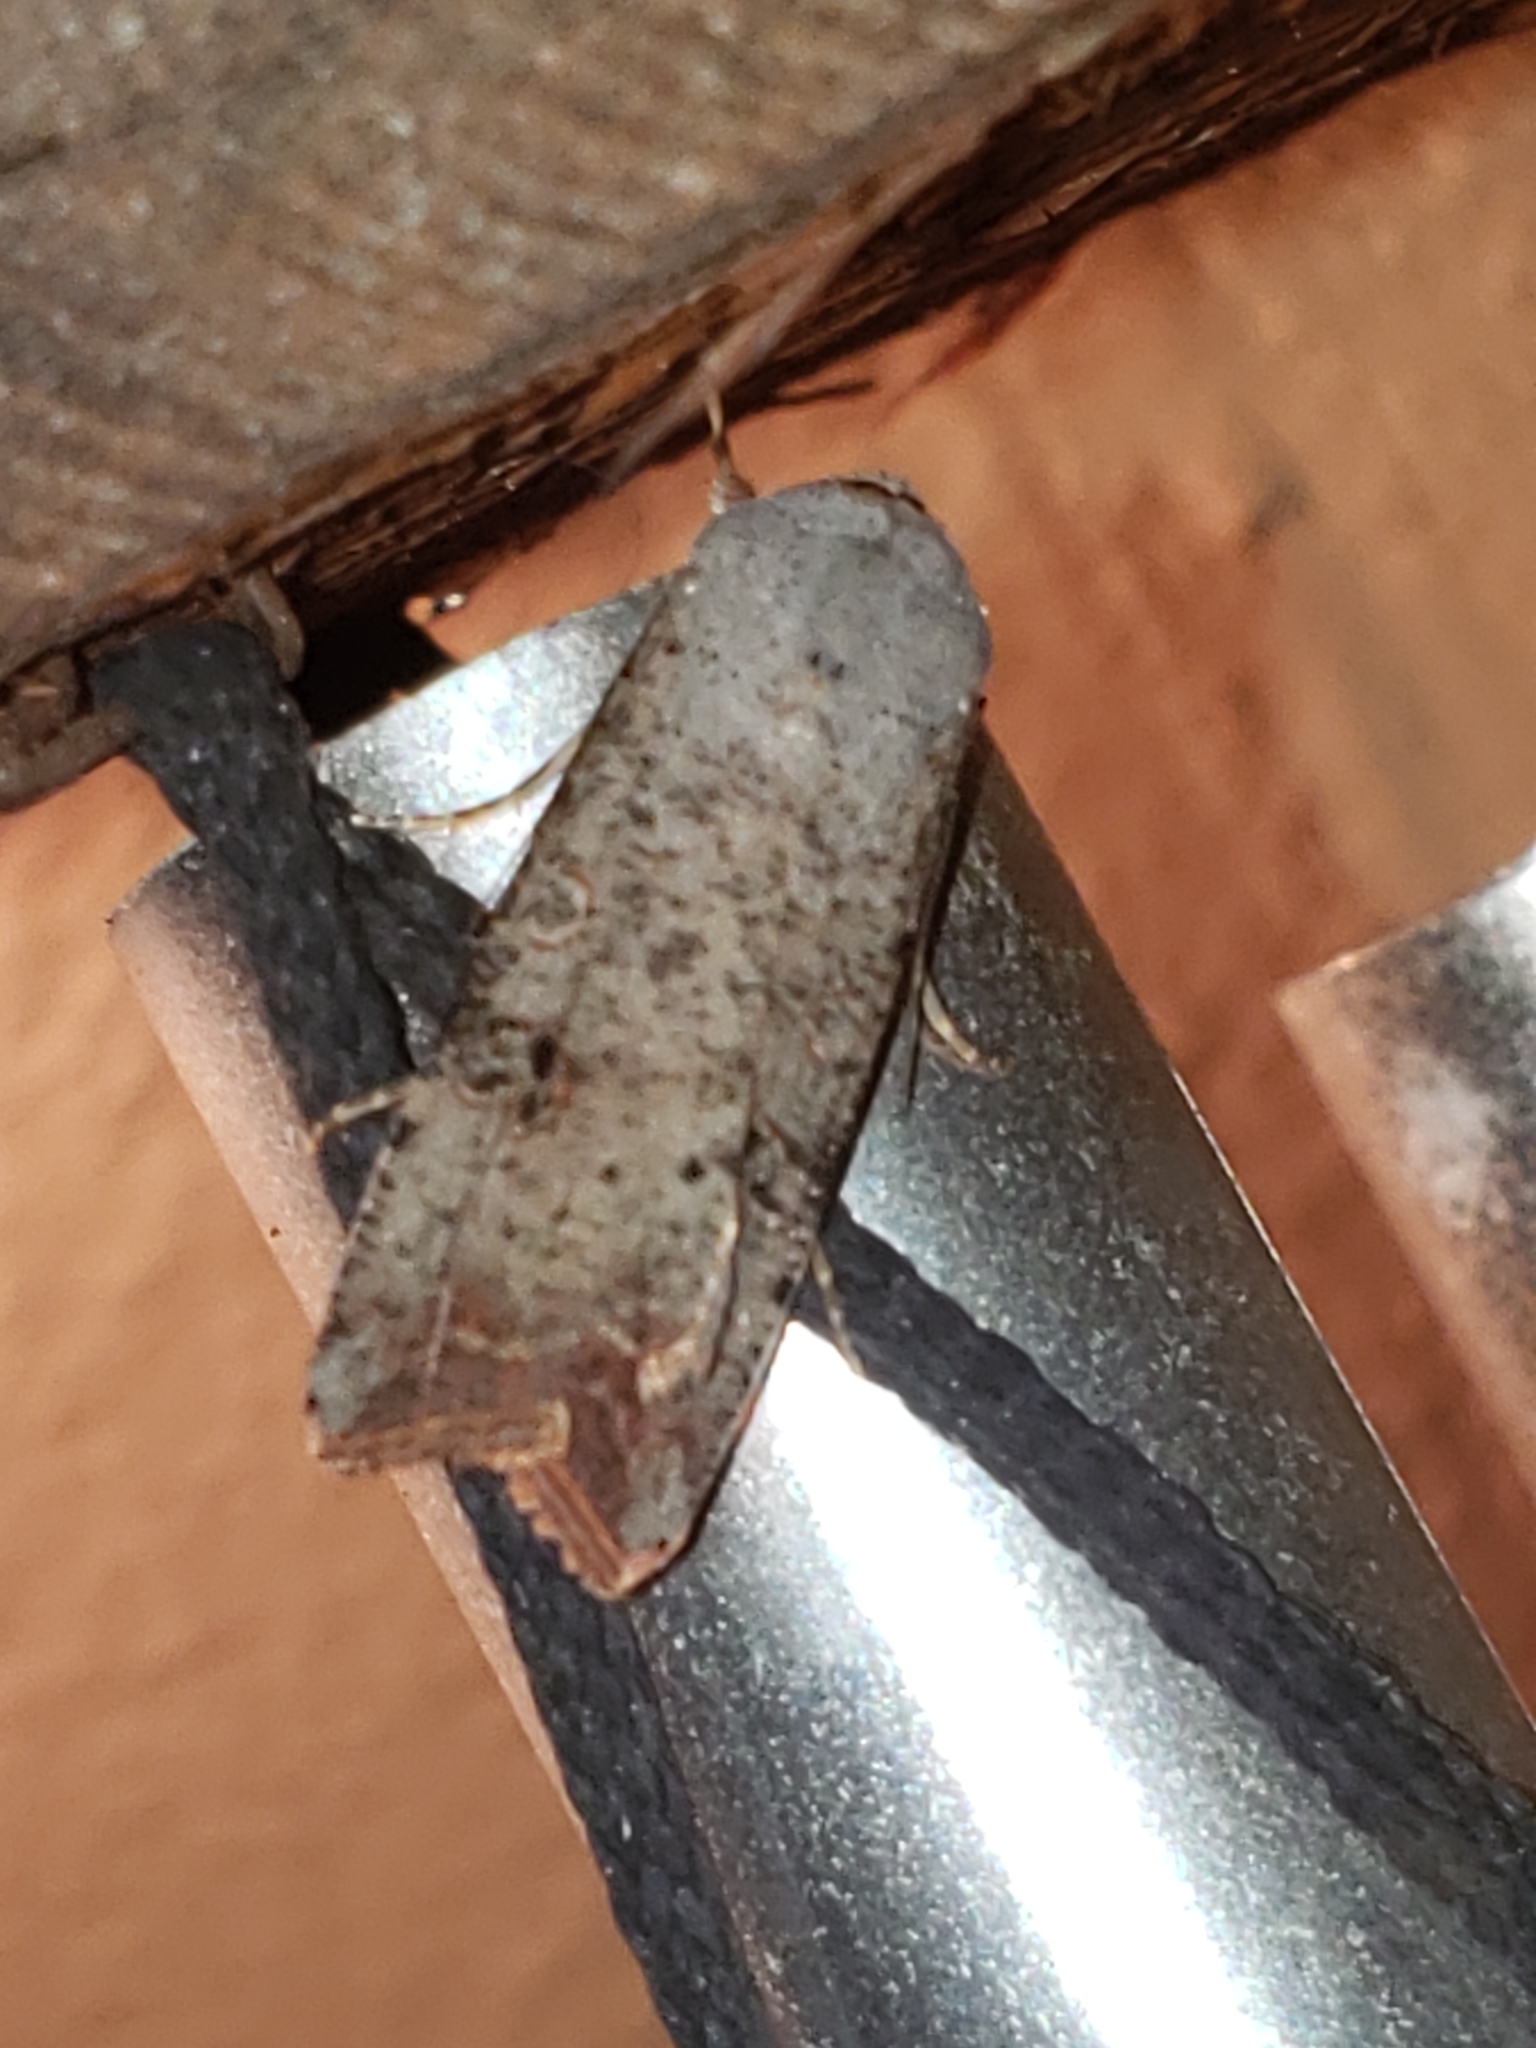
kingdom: Animalia
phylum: Arthropoda
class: Insecta
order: Lepidoptera
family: Noctuidae
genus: Anicla
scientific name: Anicla infecta
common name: Green cutworm
